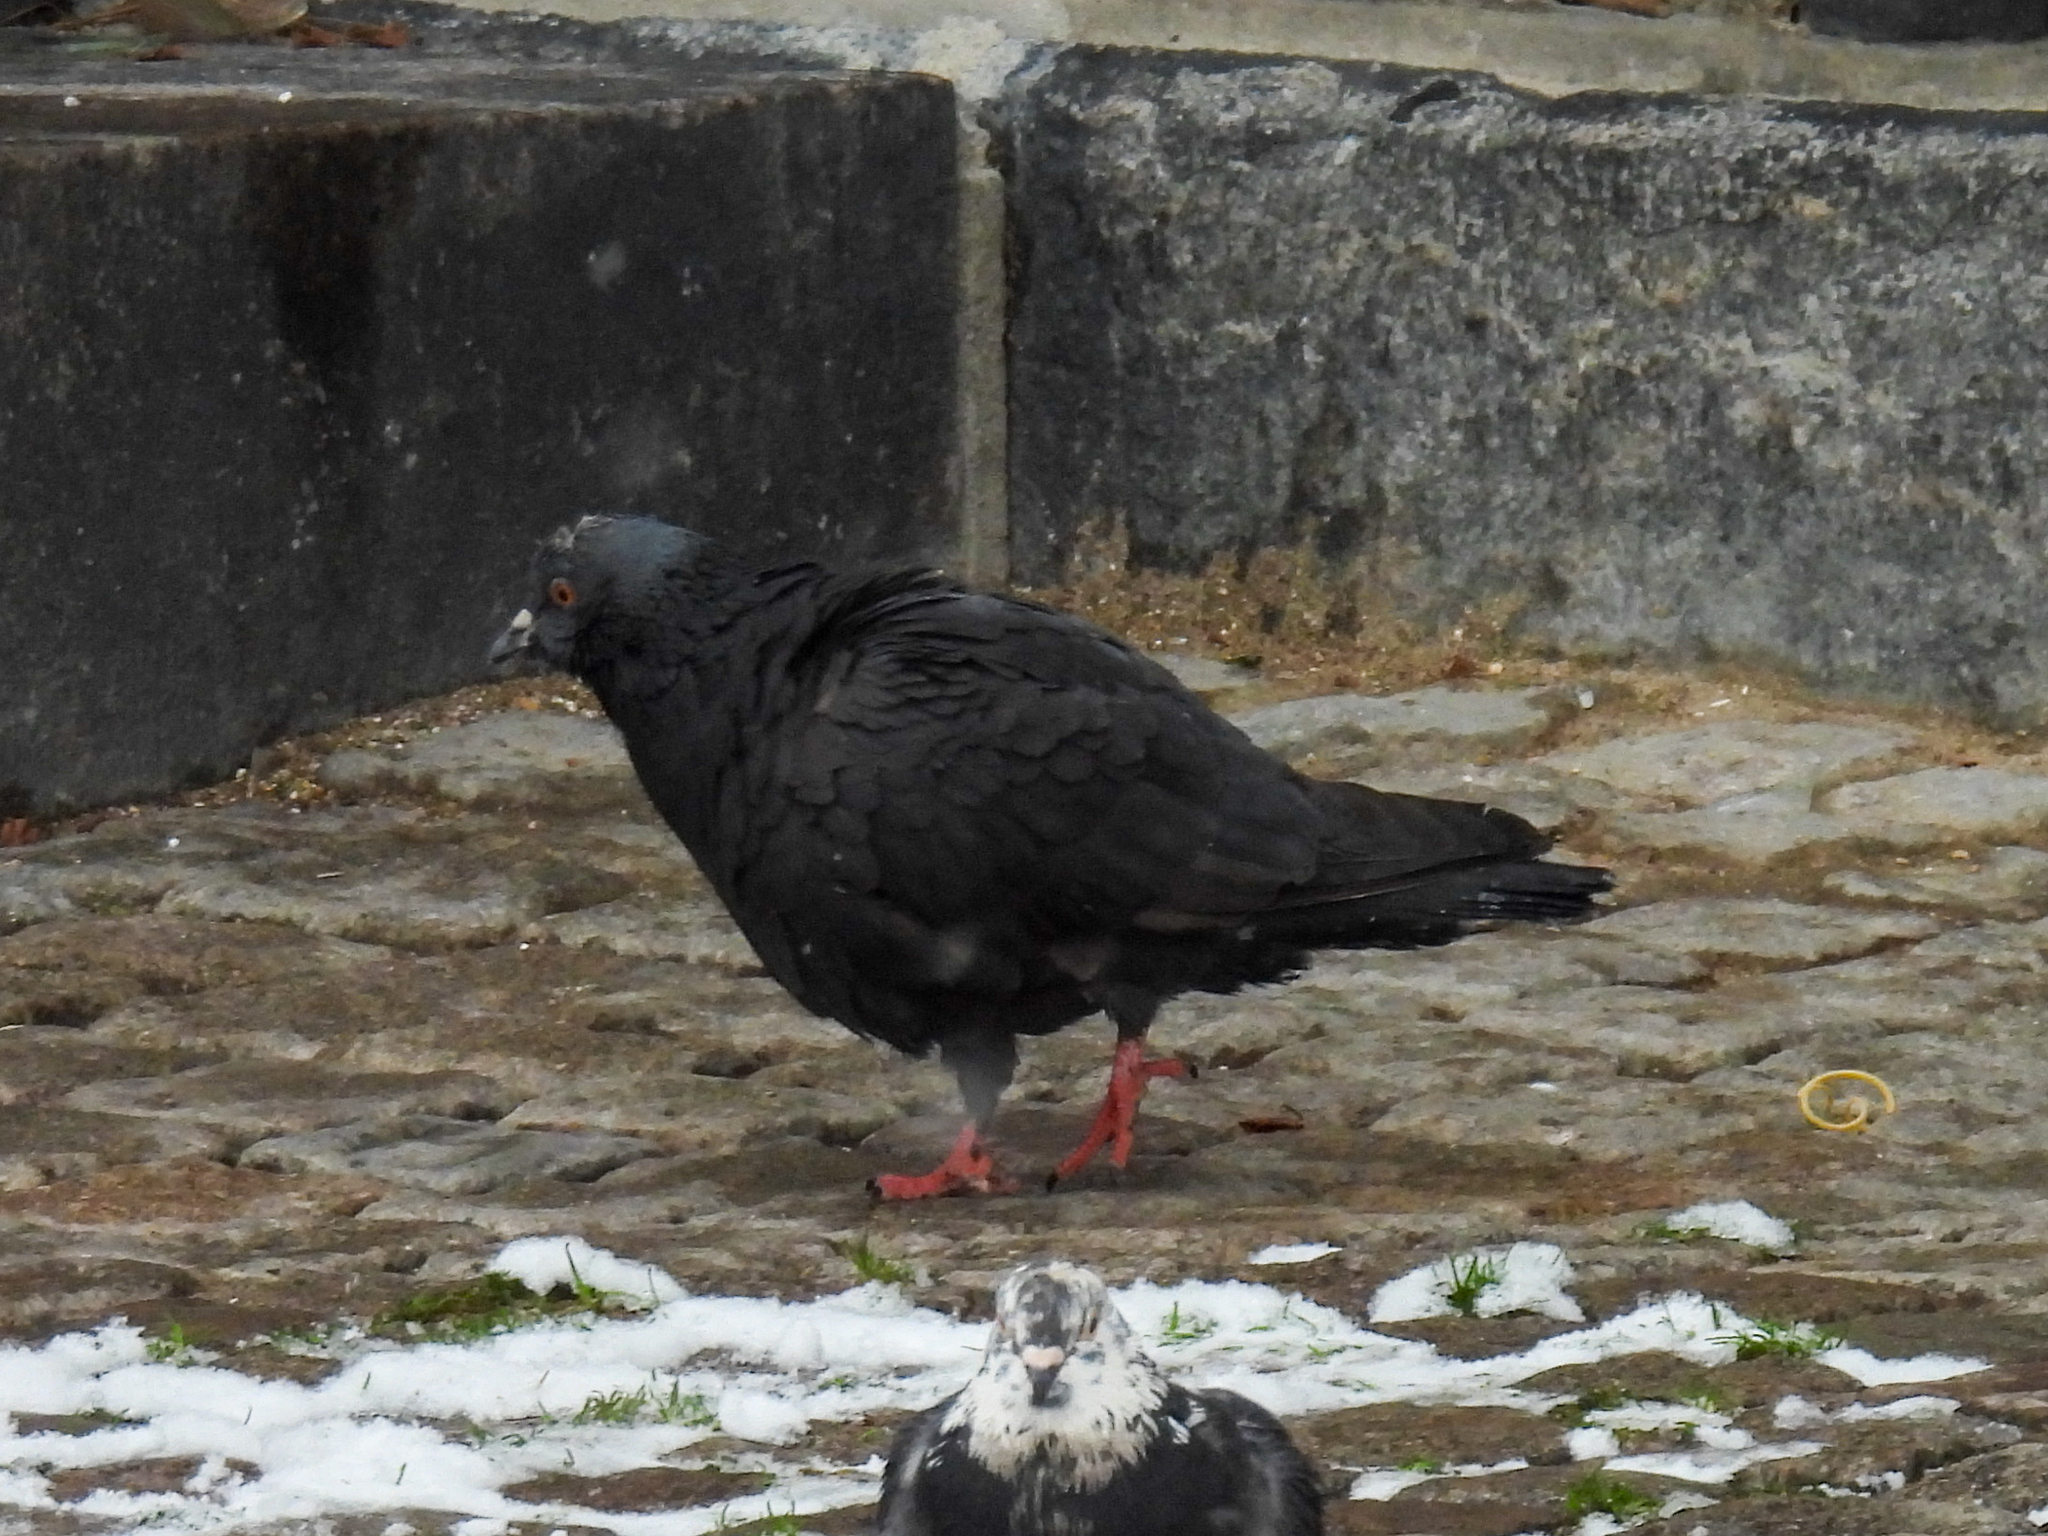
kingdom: Animalia
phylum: Chordata
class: Aves
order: Columbiformes
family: Columbidae
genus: Columba
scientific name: Columba livia
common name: Rock pigeon
